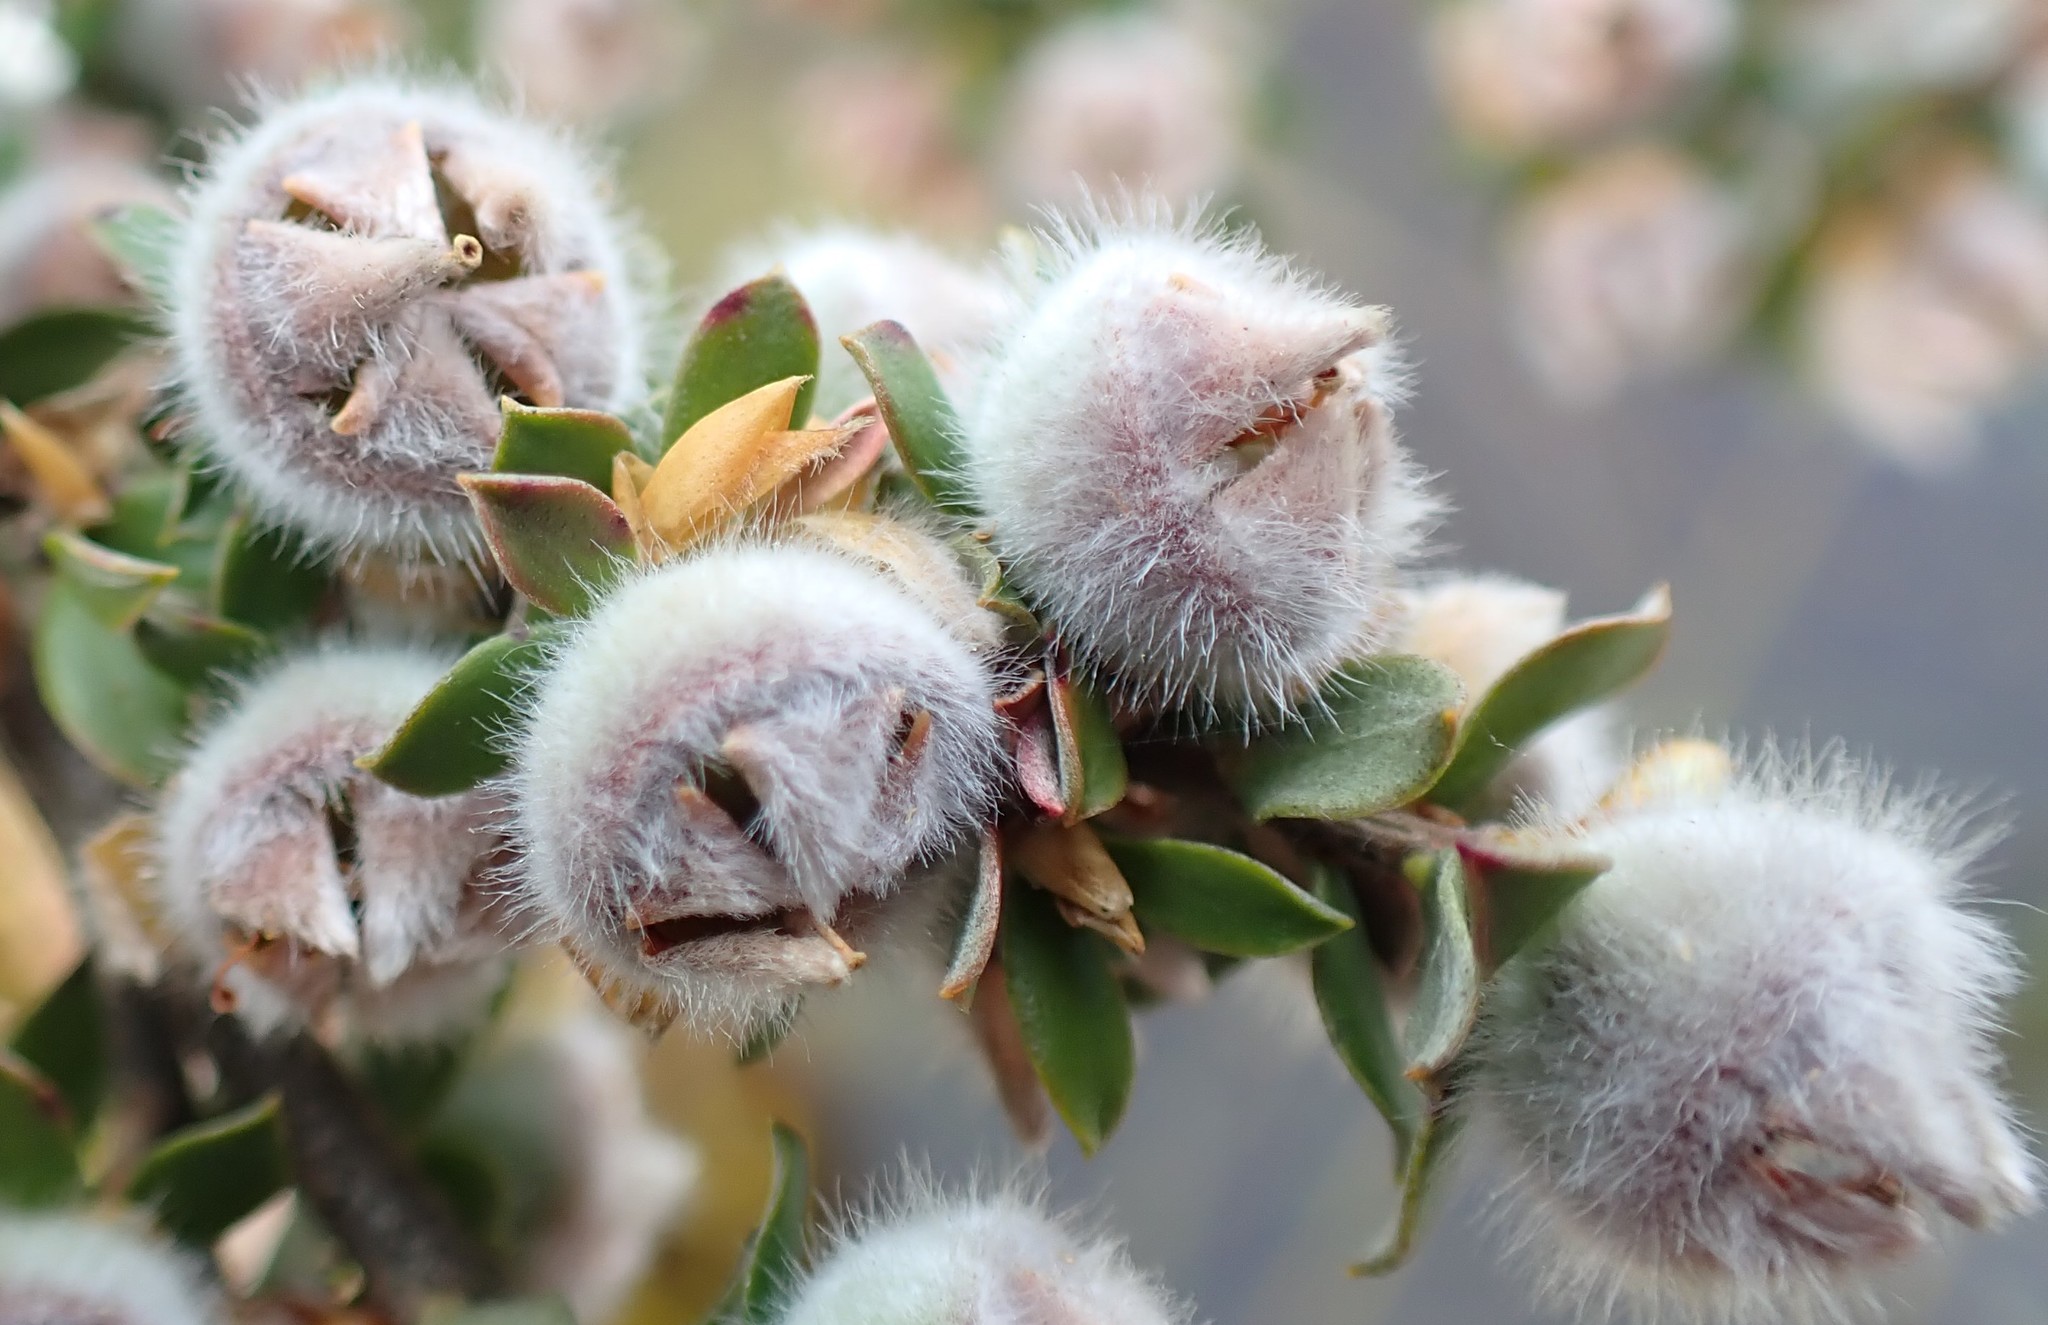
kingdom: Plantae
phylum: Tracheophyta
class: Magnoliopsida
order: Myrtales
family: Myrtaceae
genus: Leptospermum
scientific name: Leptospermum lanigerum
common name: Woolly tea-tree
